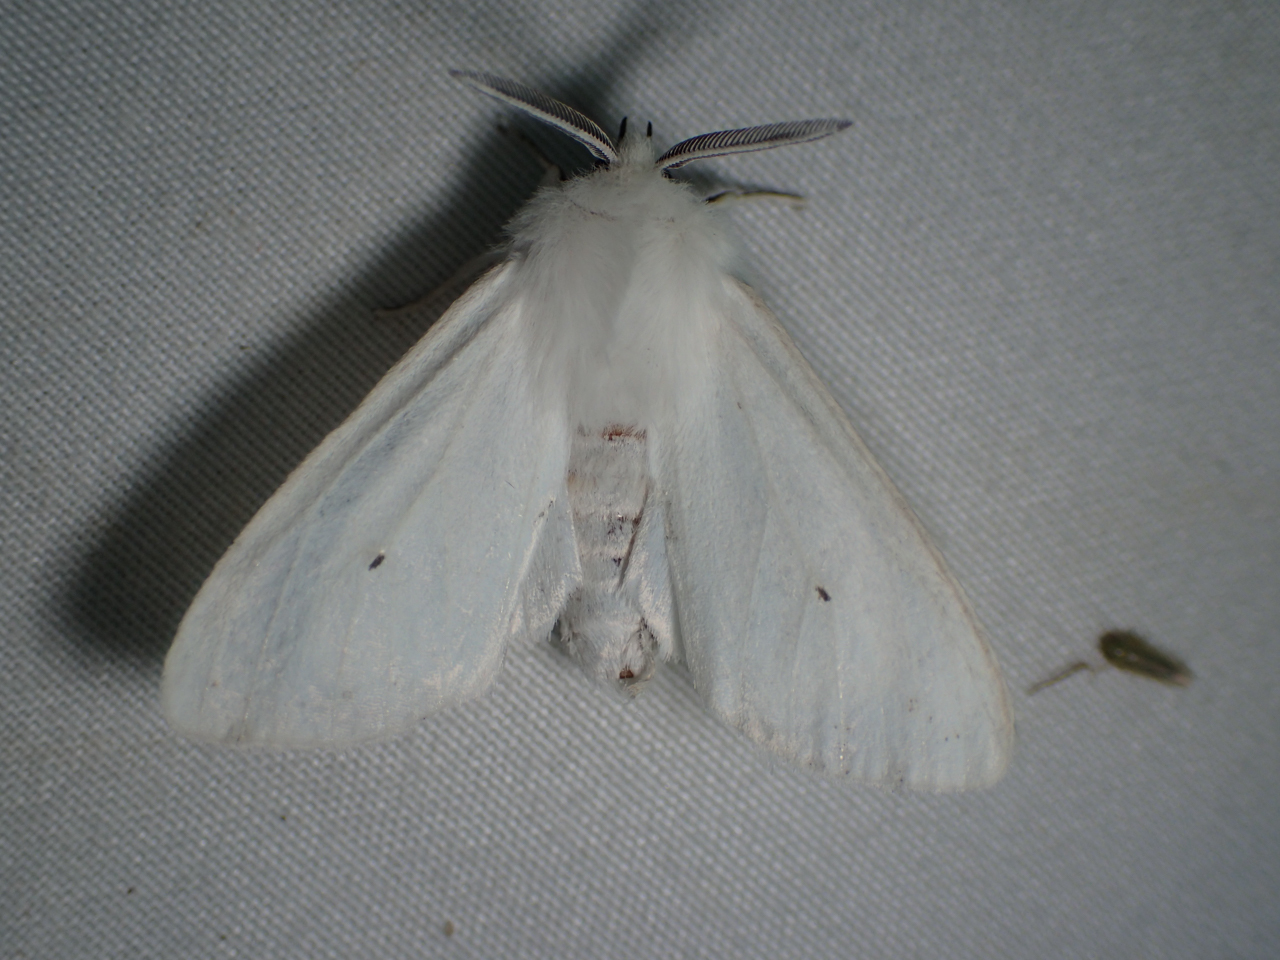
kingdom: Animalia
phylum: Arthropoda
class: Insecta
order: Lepidoptera
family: Erebidae
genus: Spilosoma
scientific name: Spilosoma congrua
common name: Agreeable tiger moth
